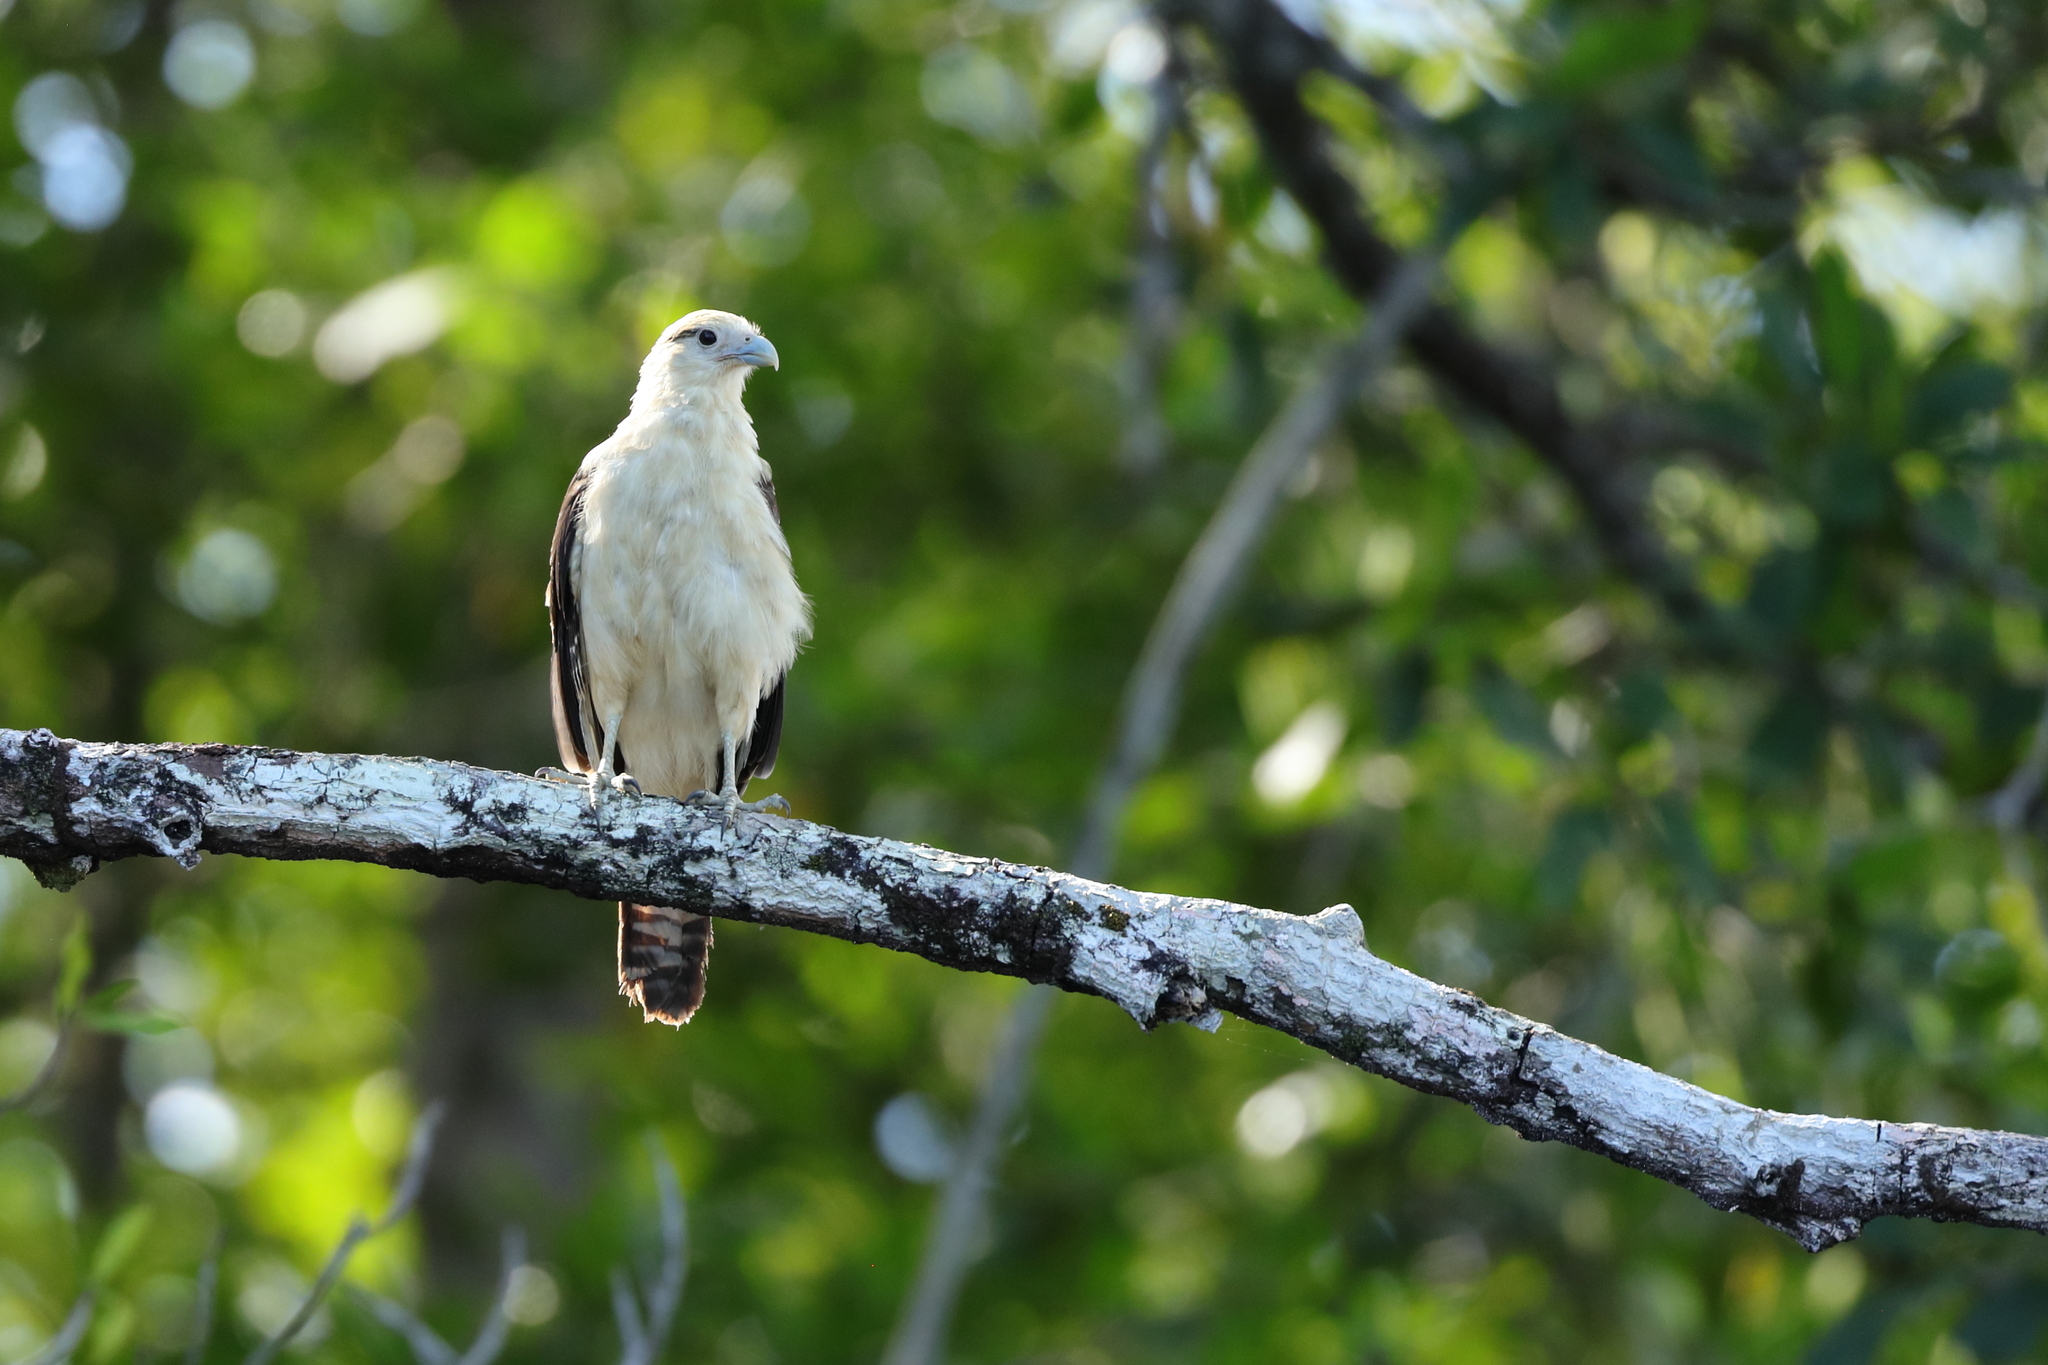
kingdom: Animalia
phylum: Chordata
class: Aves
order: Falconiformes
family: Falconidae
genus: Daptrius
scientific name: Daptrius
